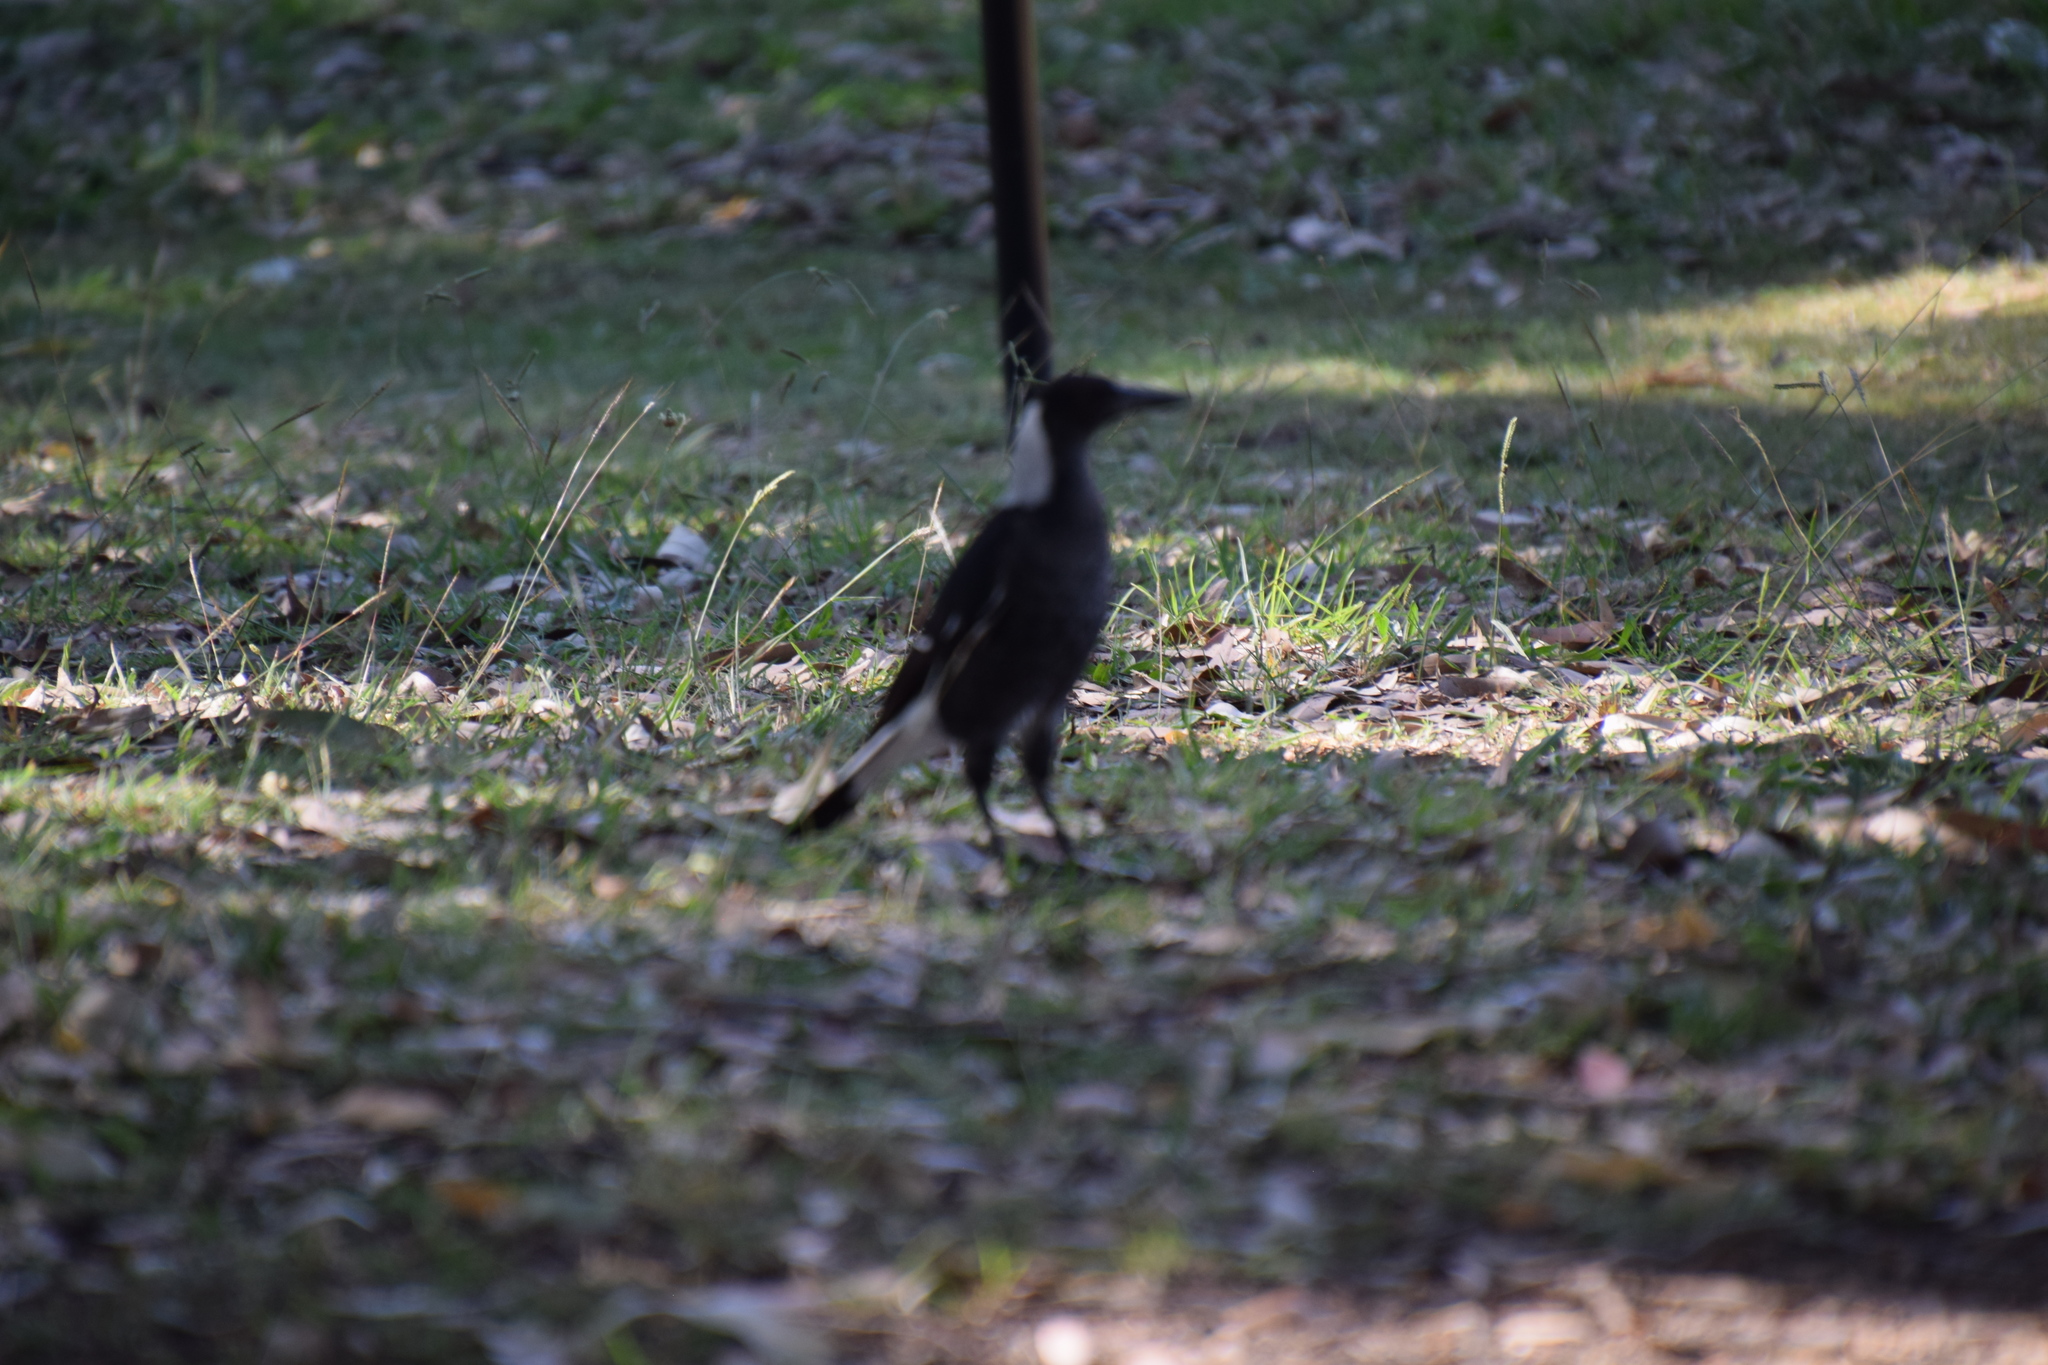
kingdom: Animalia
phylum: Chordata
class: Aves
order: Passeriformes
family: Cracticidae
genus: Gymnorhina
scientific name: Gymnorhina tibicen
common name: Australian magpie
